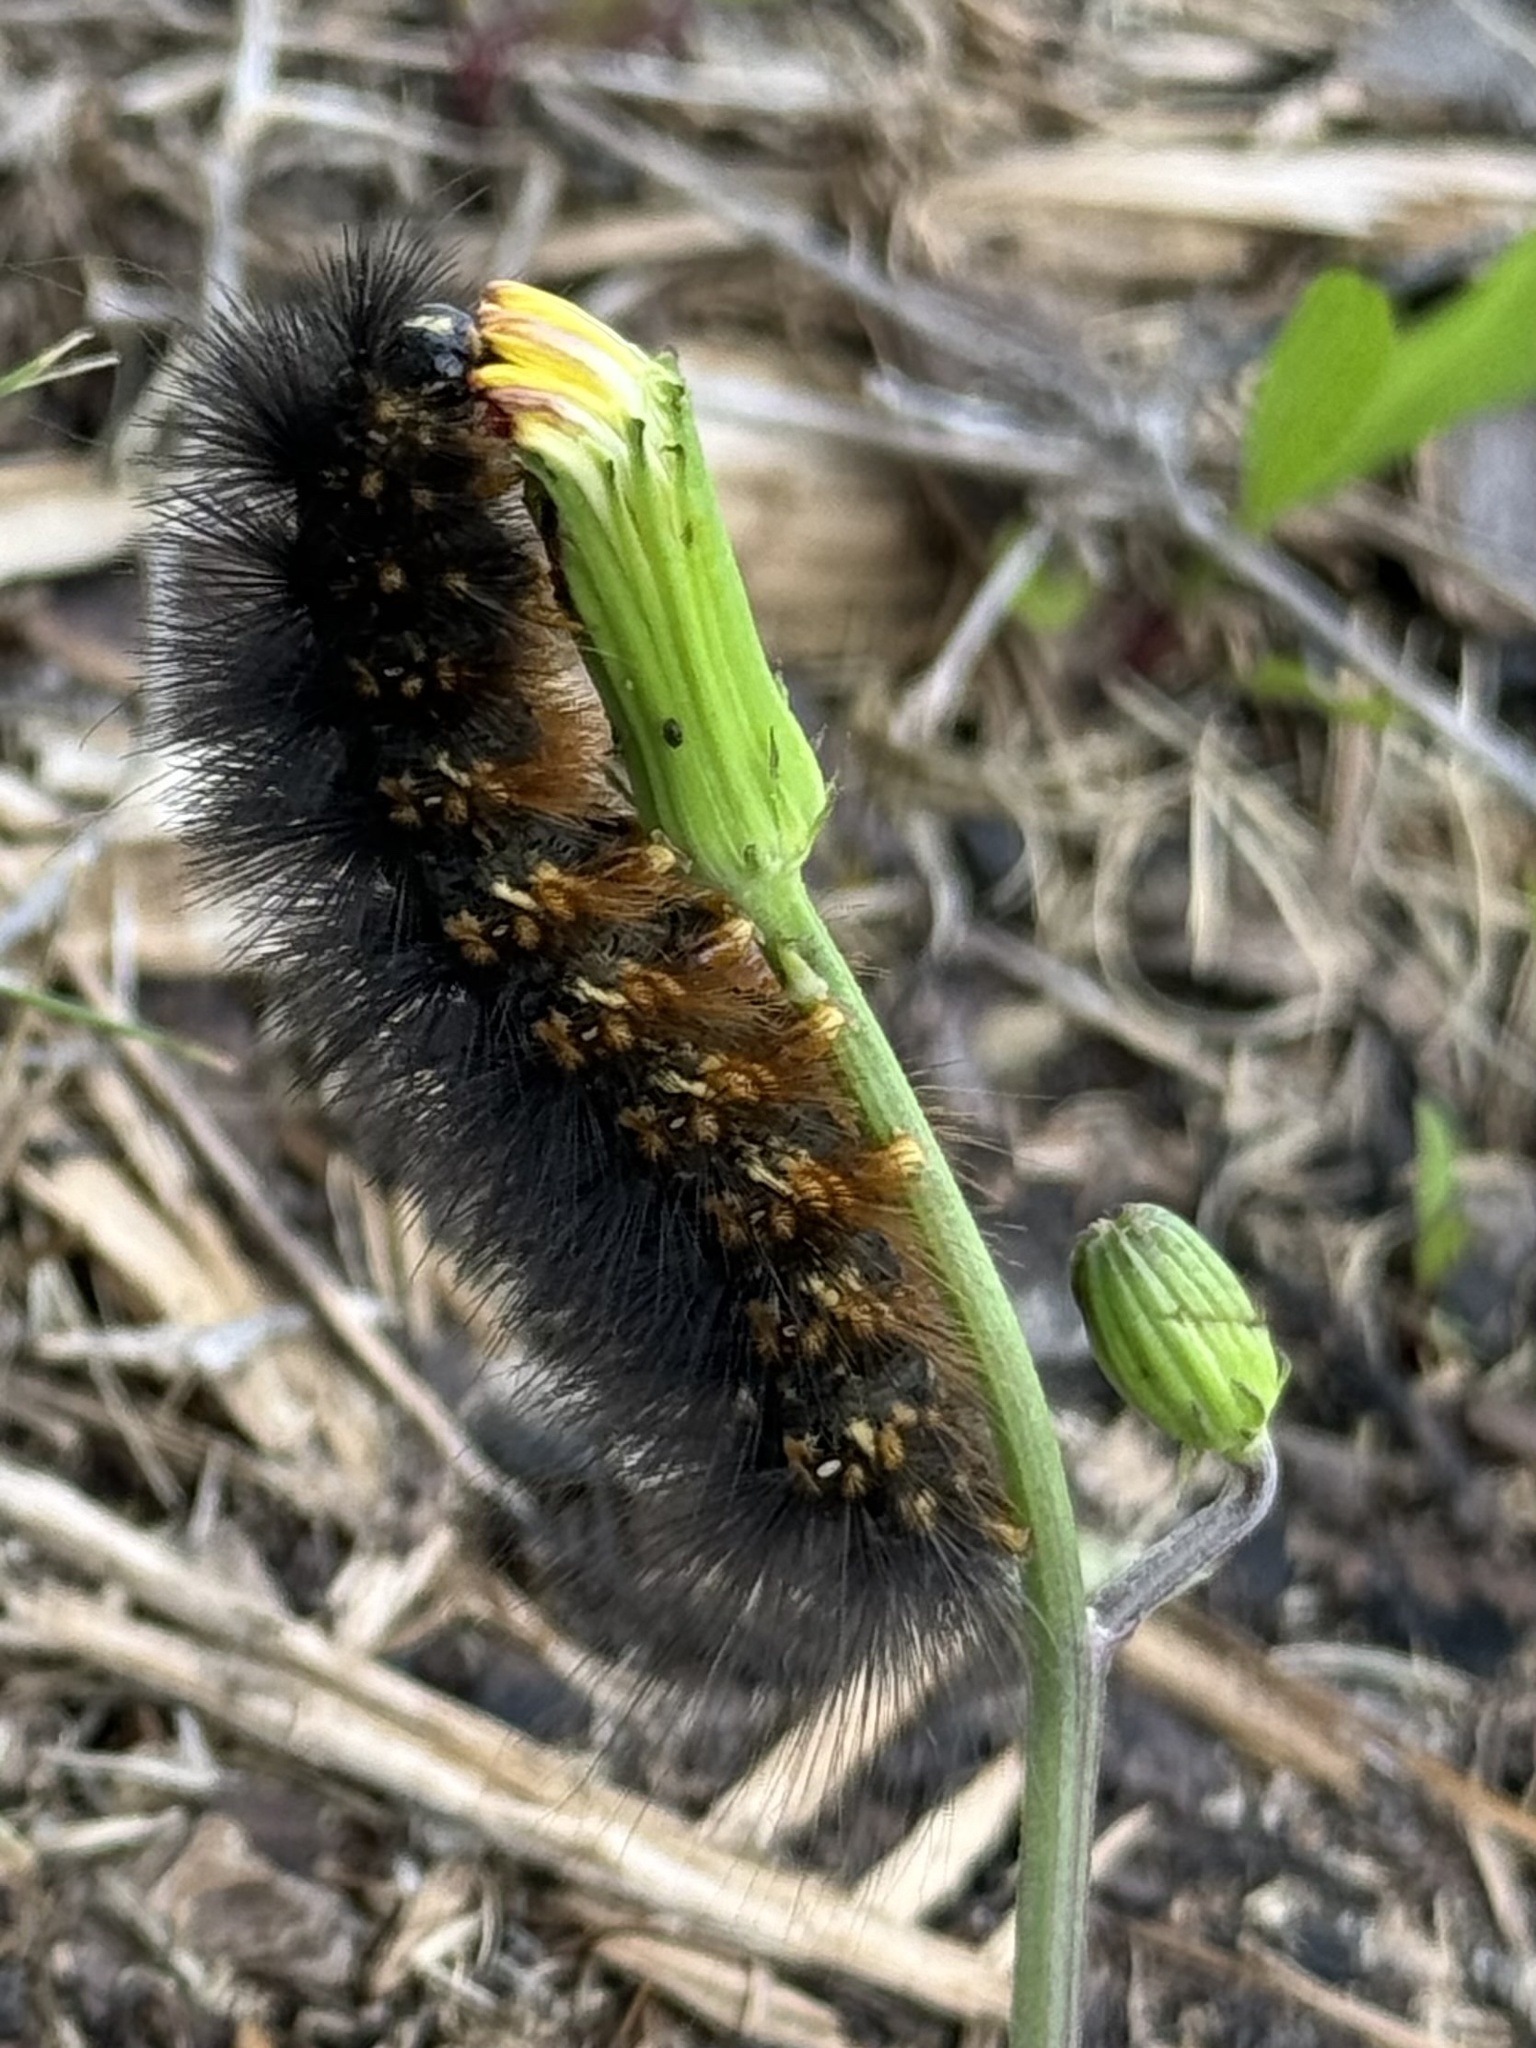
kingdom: Animalia
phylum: Arthropoda
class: Insecta
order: Lepidoptera
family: Erebidae
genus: Estigmene
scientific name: Estigmene acrea
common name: Salt marsh moth
